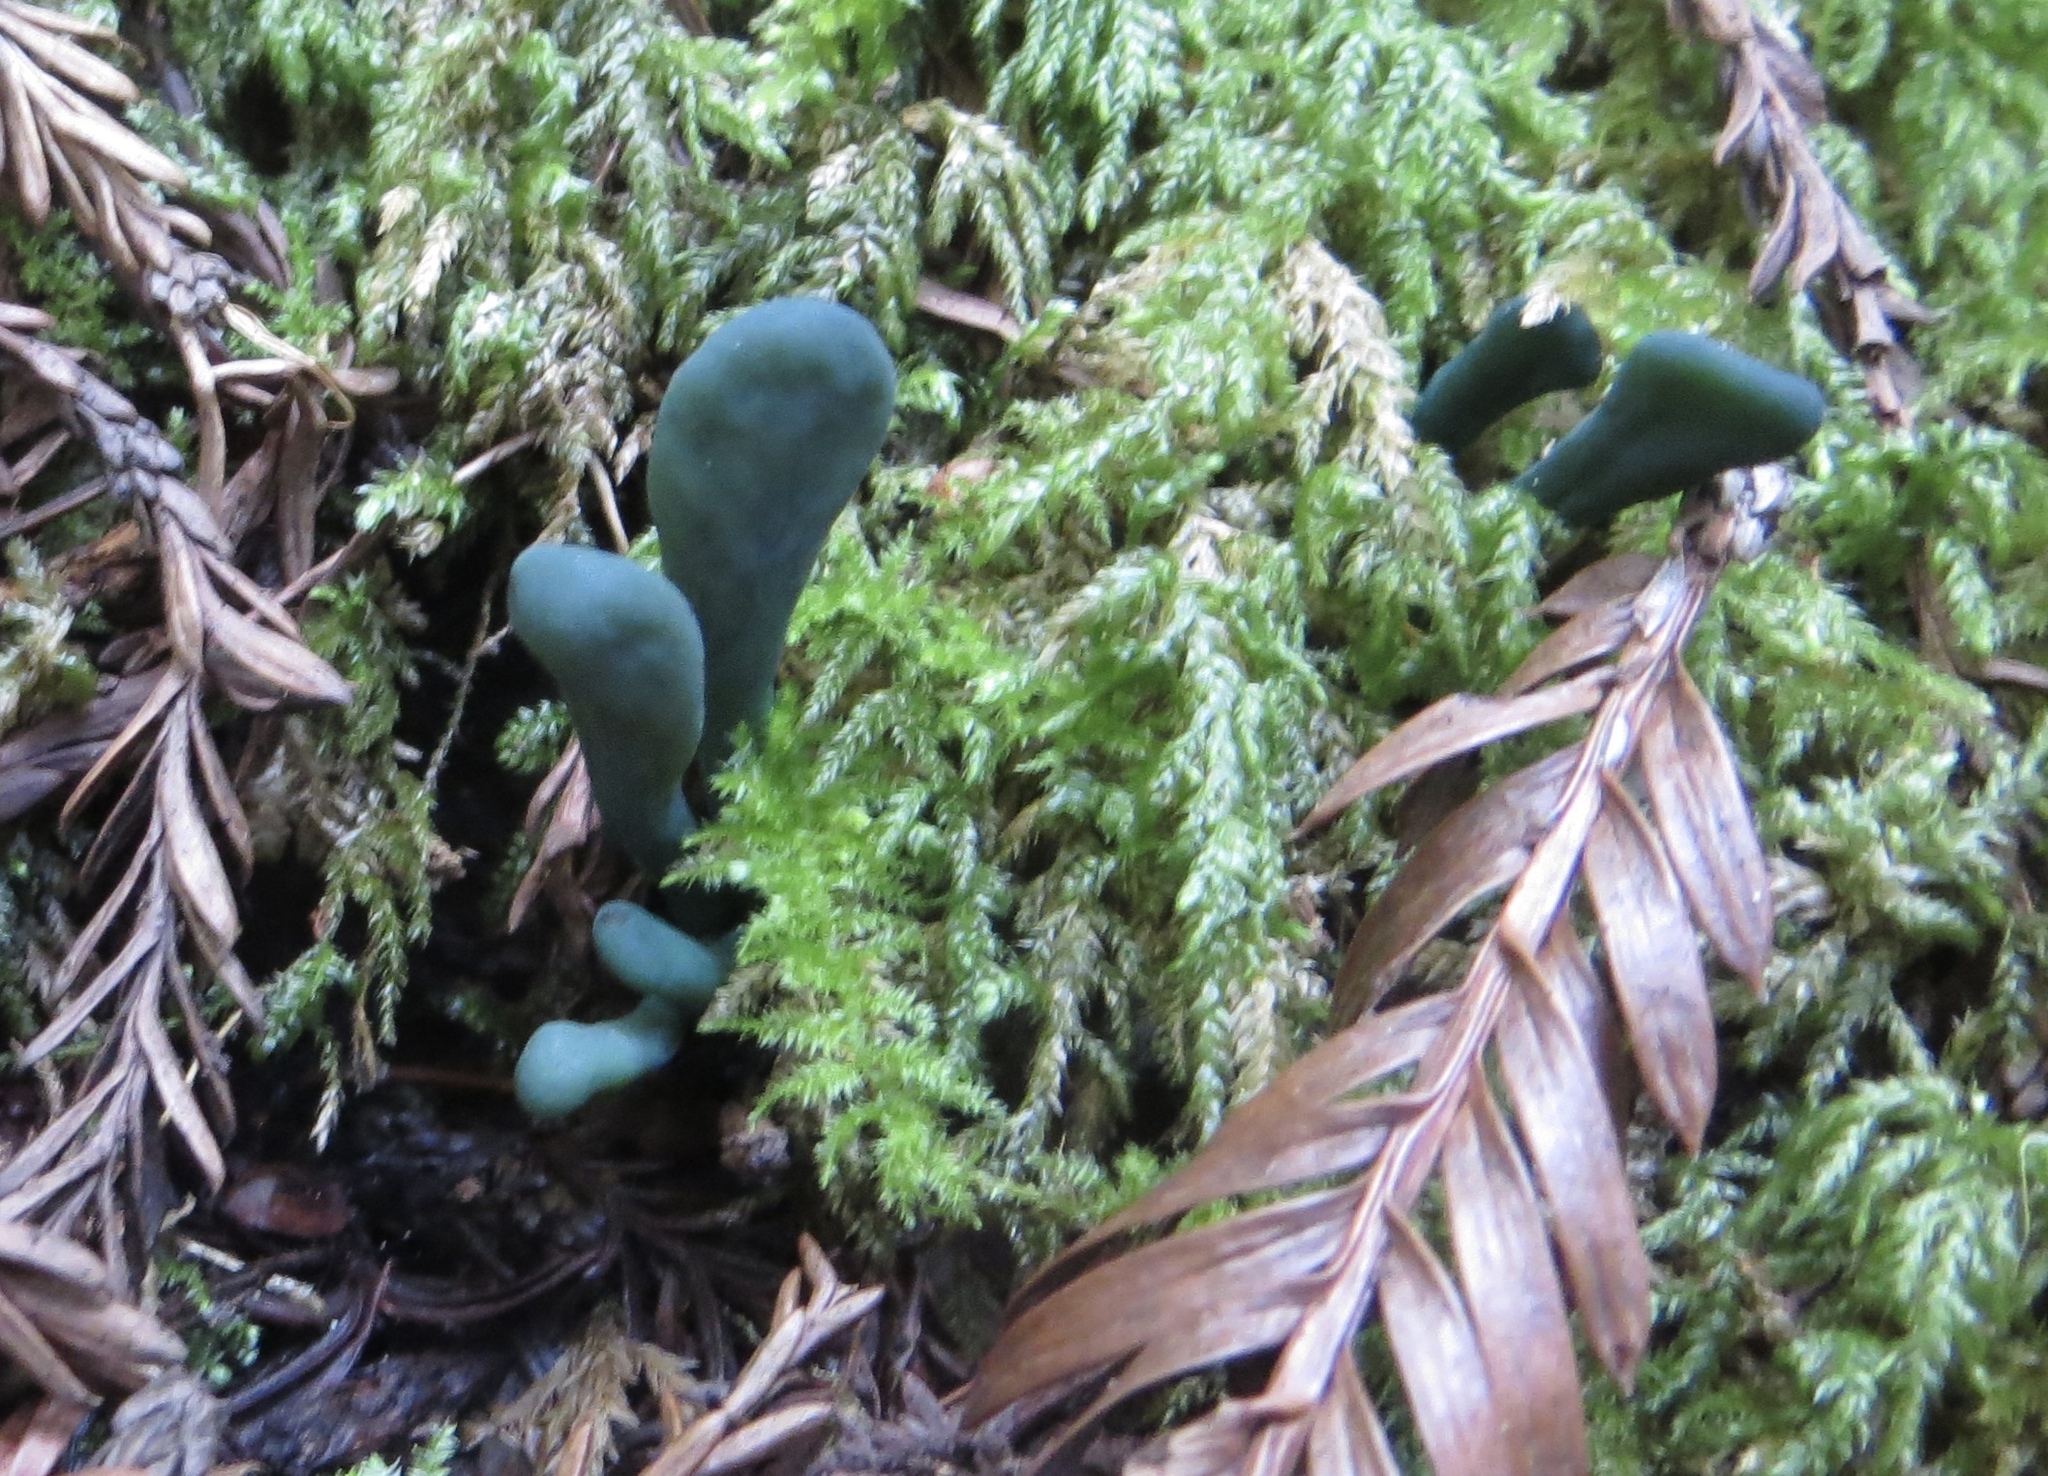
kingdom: Fungi
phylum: Ascomycota
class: Leotiomycetes
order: Leotiales
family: Leotiaceae
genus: Microglossum
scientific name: Microglossum viride
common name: Green earthtongue
